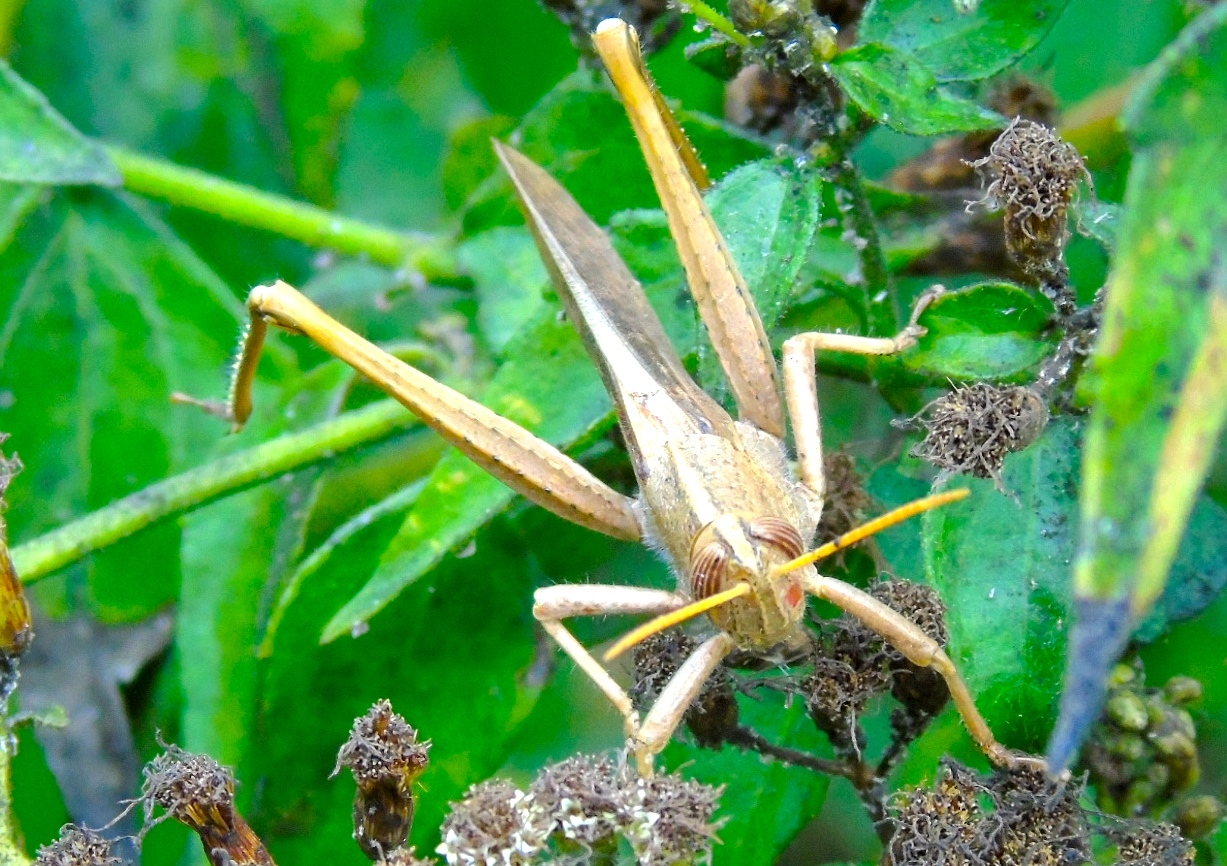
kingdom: Animalia
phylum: Arthropoda
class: Insecta
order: Orthoptera
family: Acrididae
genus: Schistocerca
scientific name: Schistocerca
